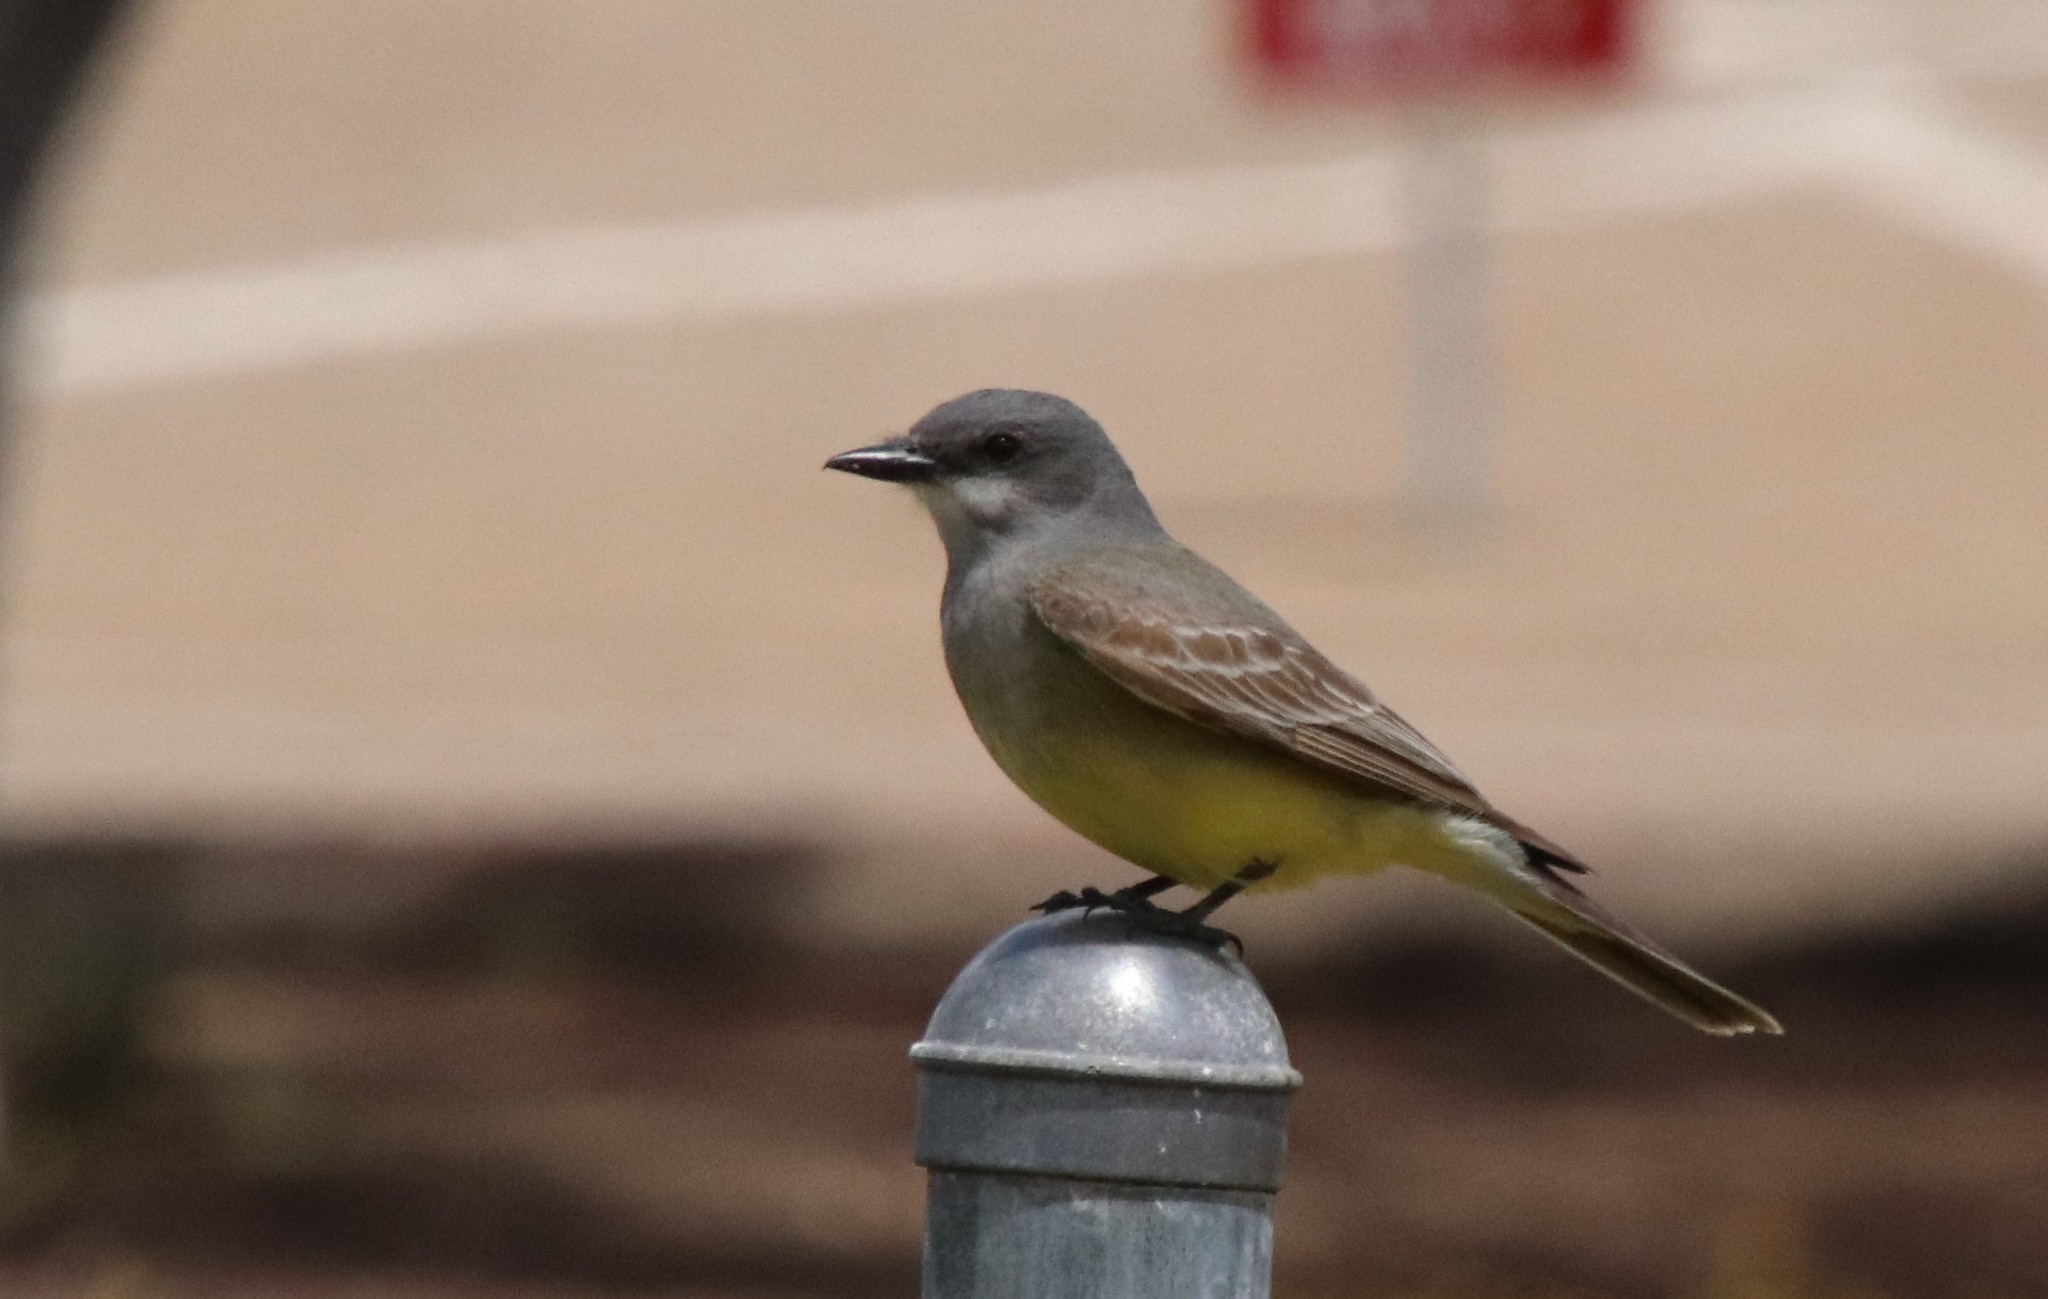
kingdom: Animalia
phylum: Chordata
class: Aves
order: Passeriformes
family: Tyrannidae
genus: Tyrannus
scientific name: Tyrannus vociferans
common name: Cassin's kingbird
